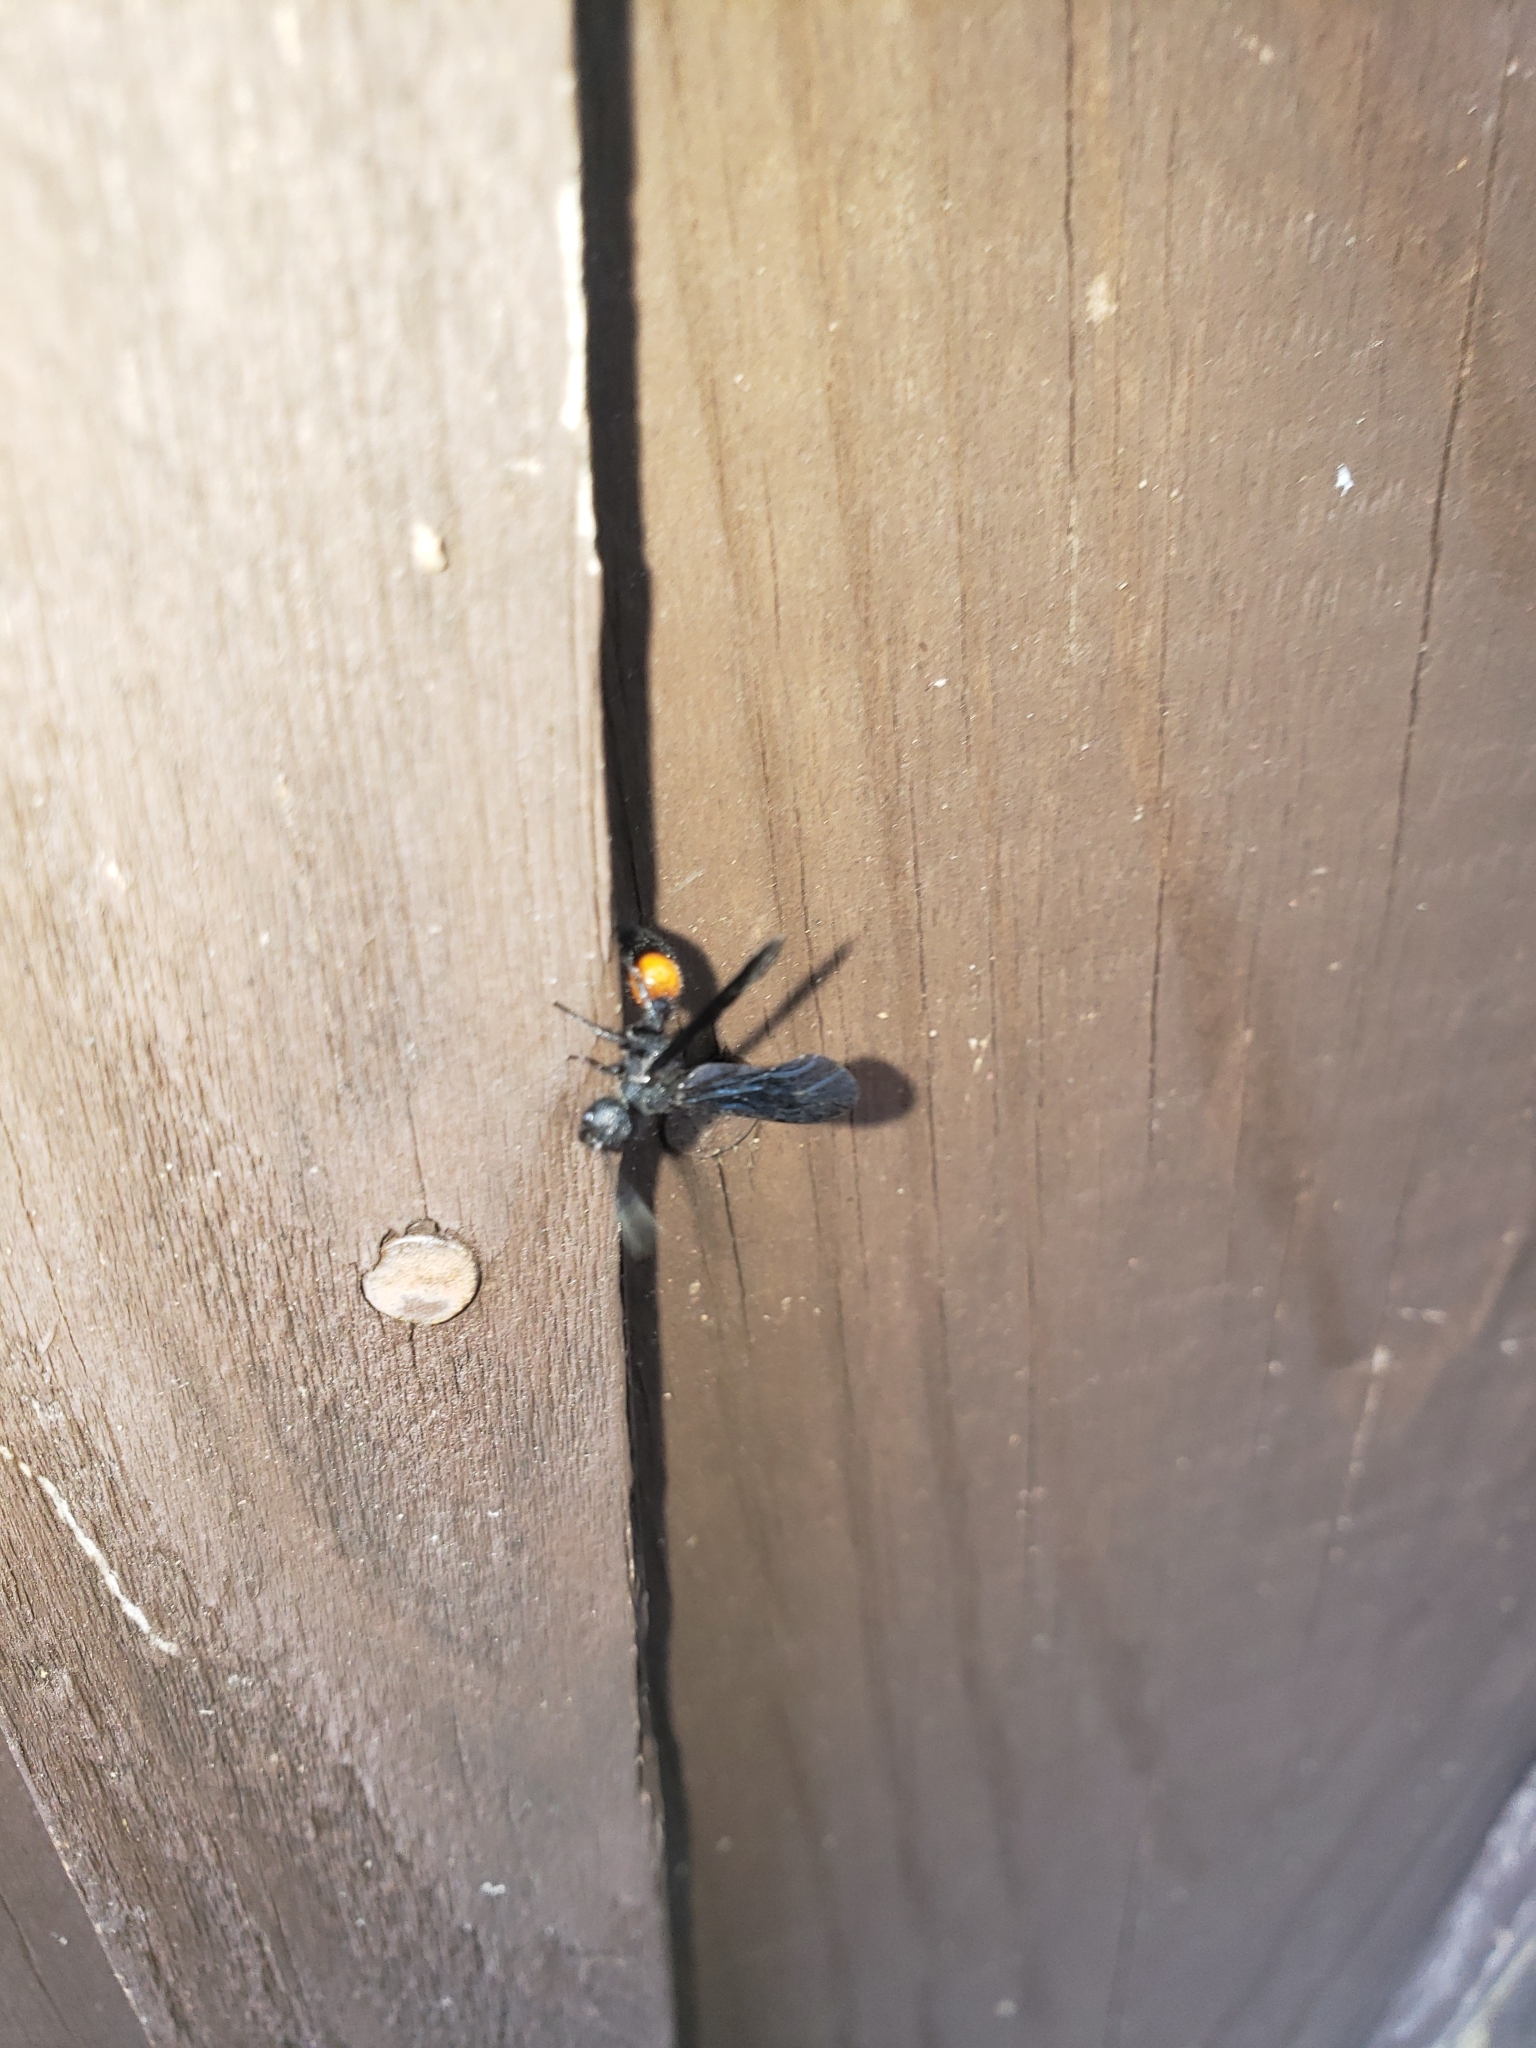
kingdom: Animalia
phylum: Arthropoda
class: Insecta
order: Hymenoptera
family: Mutillidae
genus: Sphaeropthalma
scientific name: Sphaeropthalma
